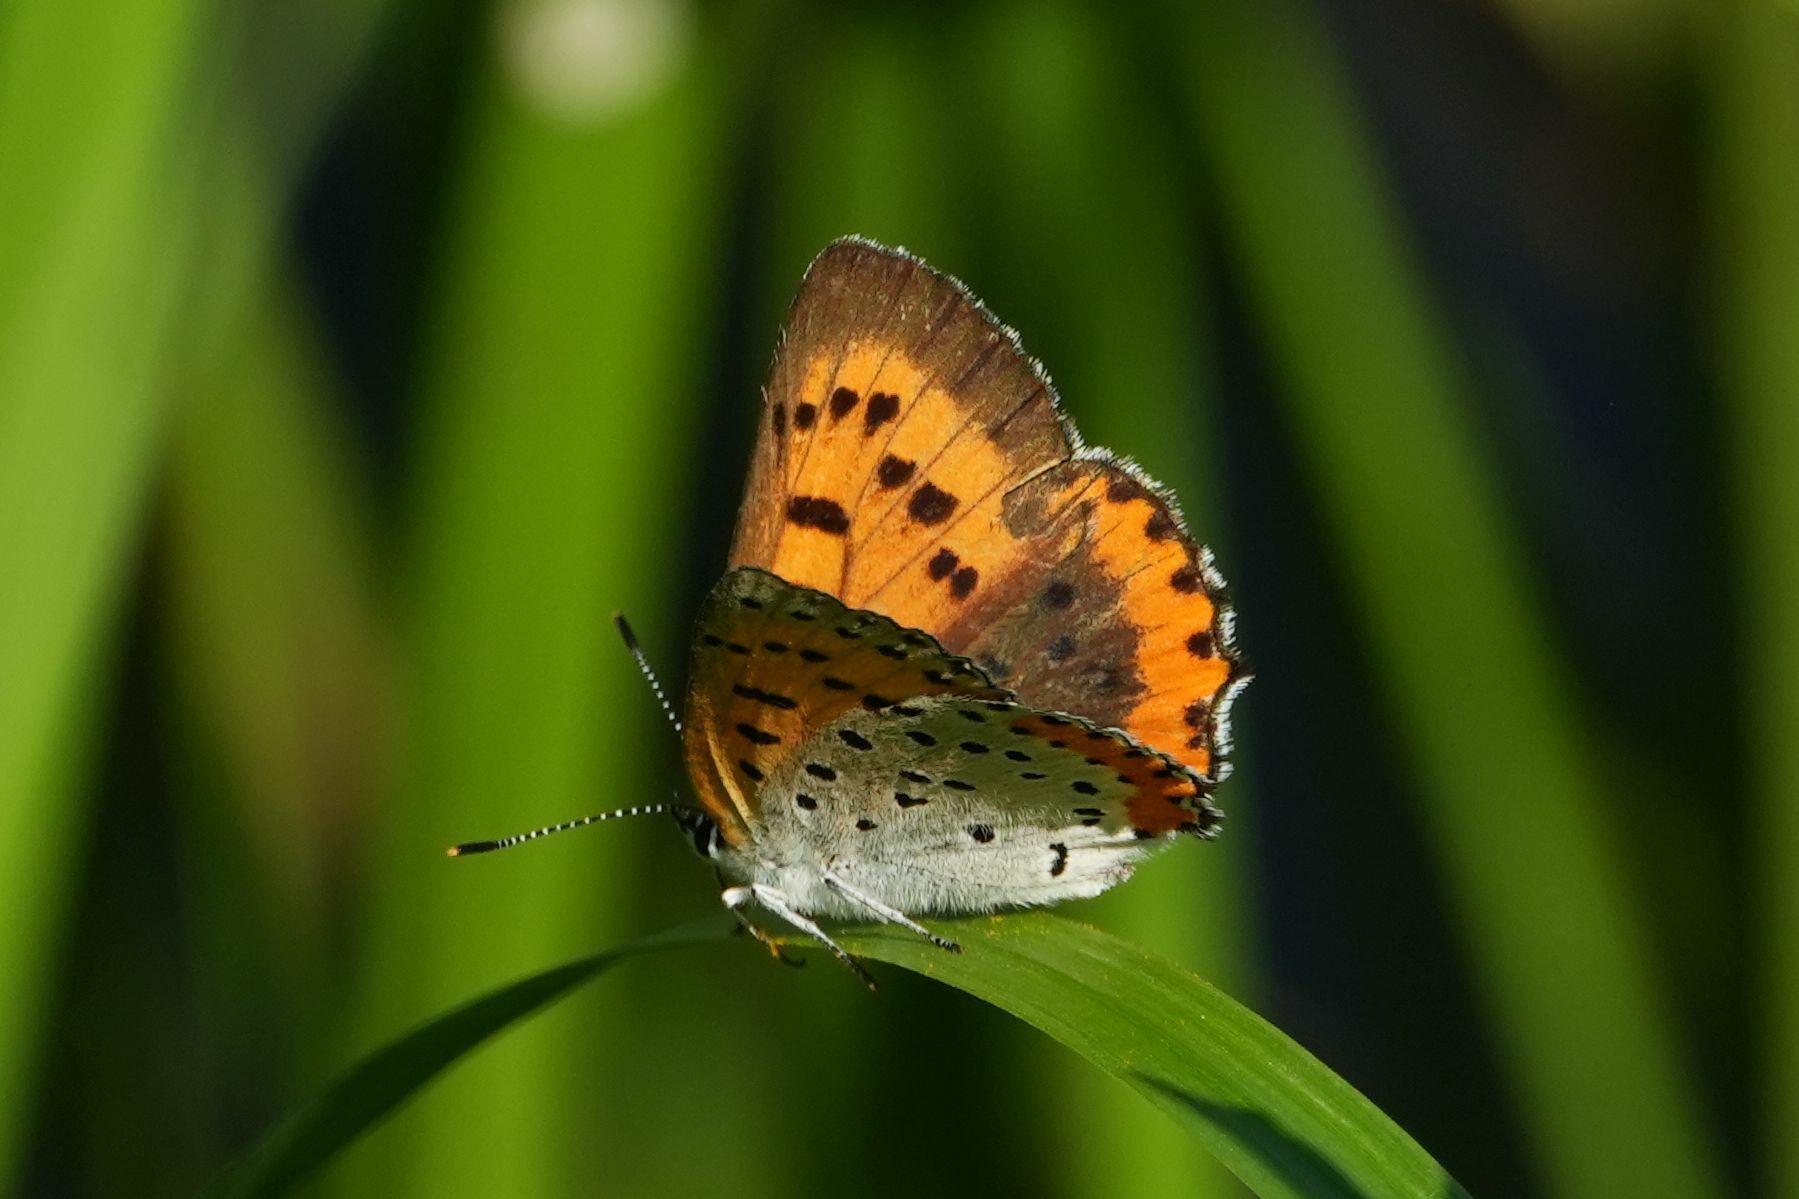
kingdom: Animalia
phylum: Arthropoda
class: Insecta
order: Lepidoptera
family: Lycaenidae
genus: Tharsalea
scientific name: Tharsalea hyllus
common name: Bronze copper
